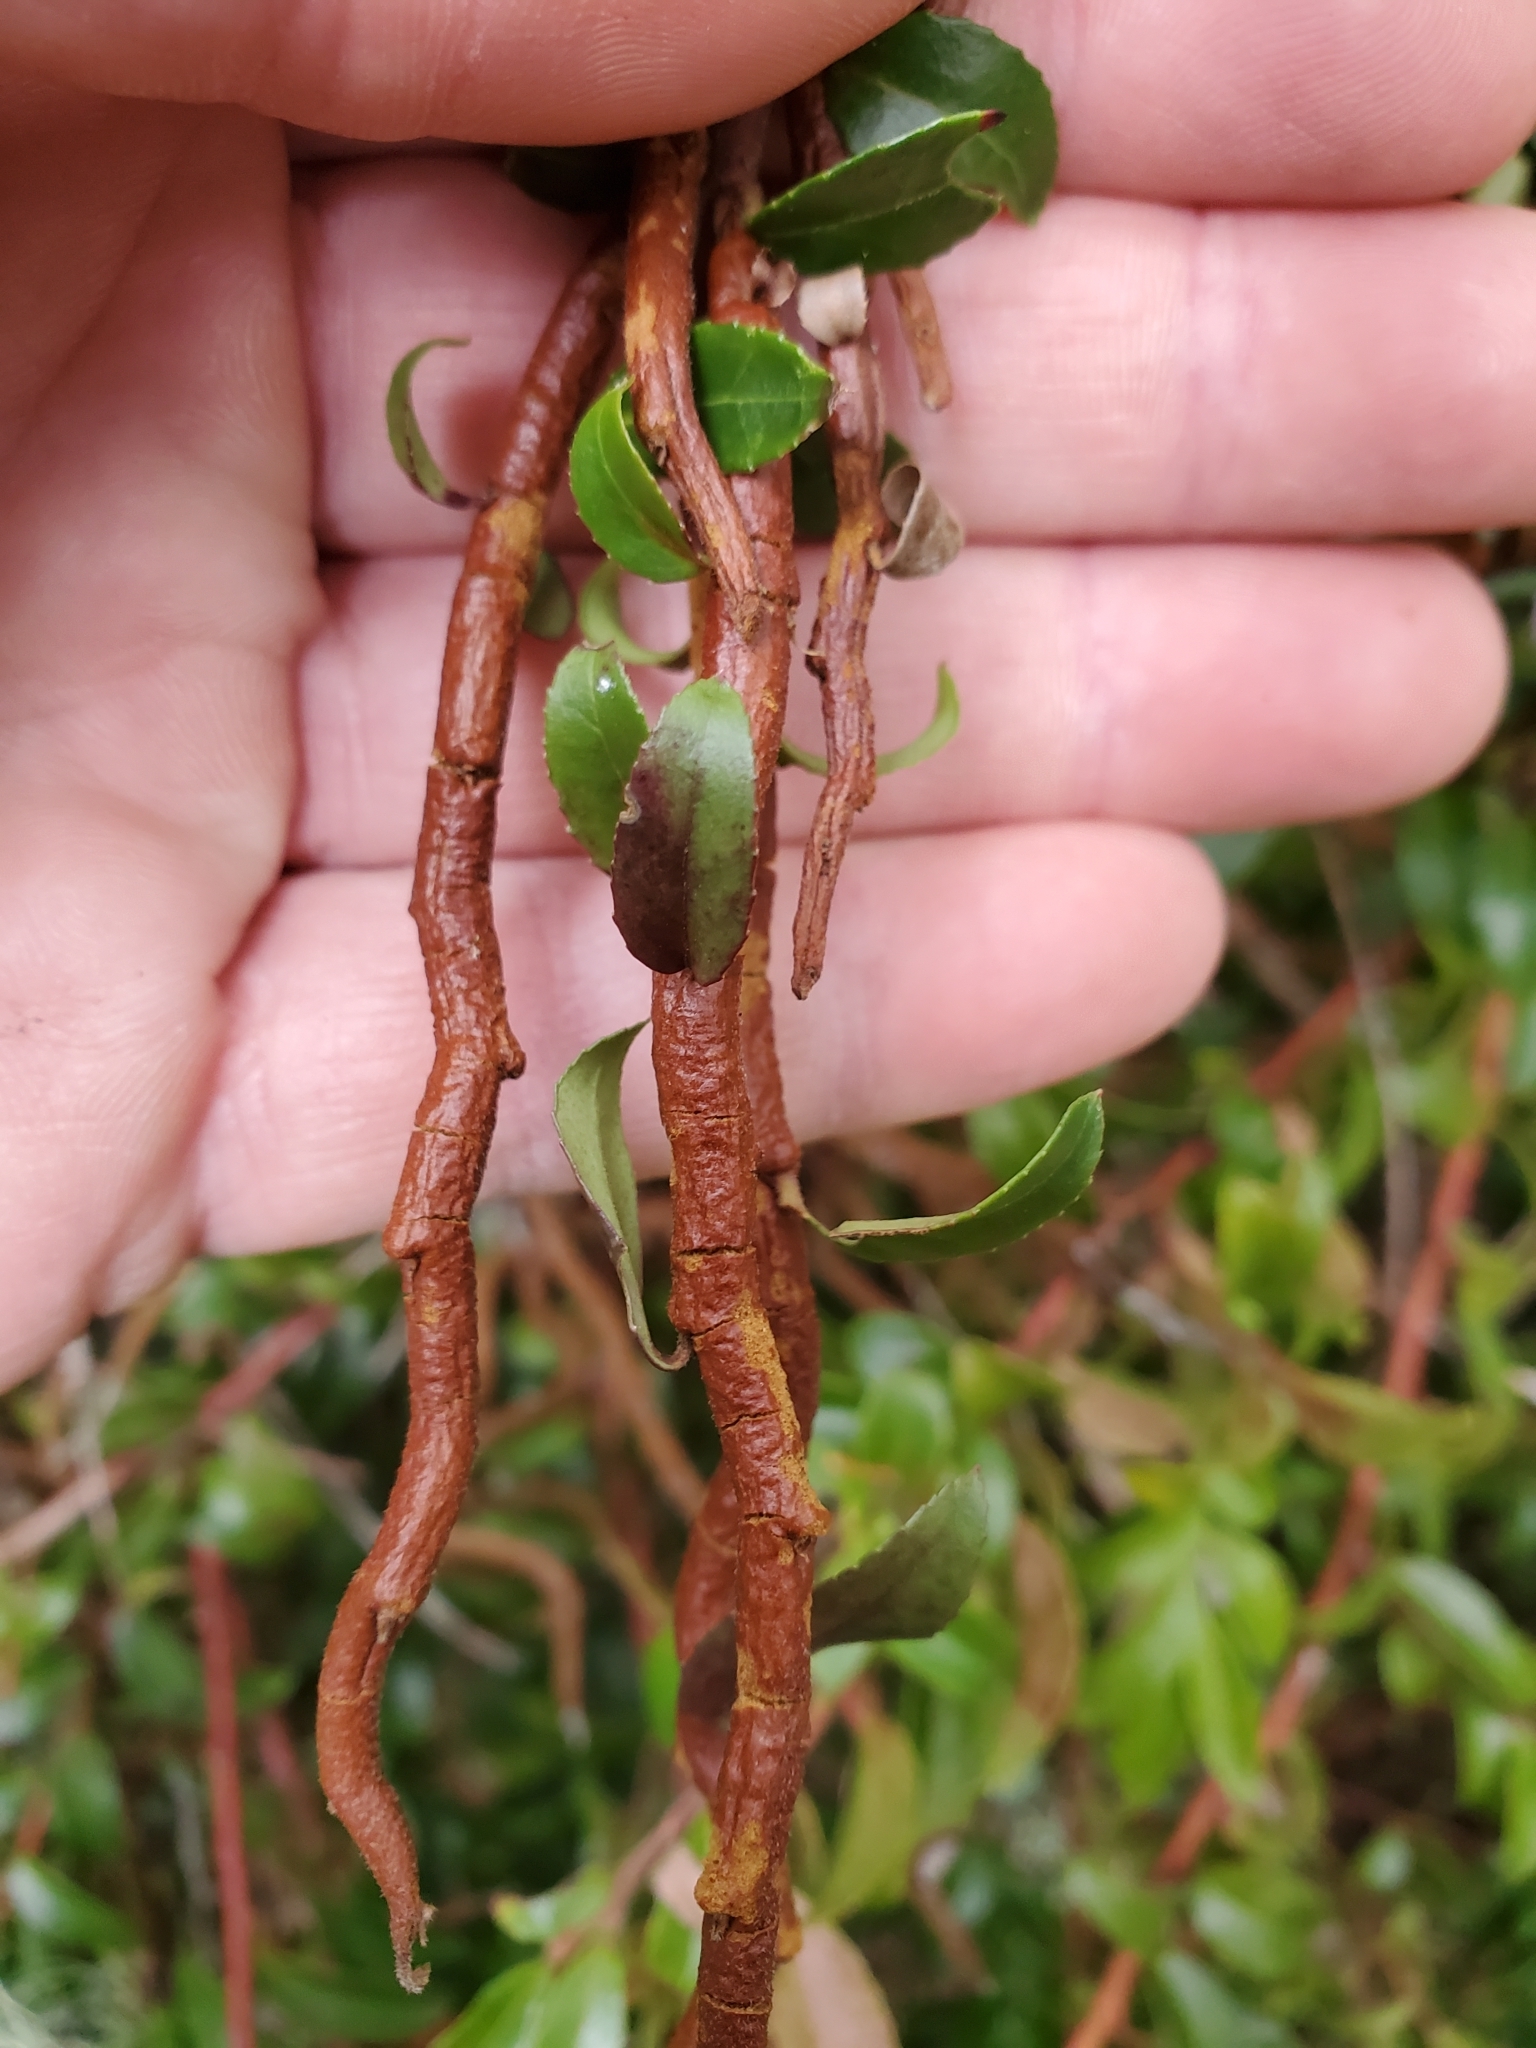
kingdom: Fungi
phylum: Basidiomycota
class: Pucciniomycetes
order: Pucciniales
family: Pucciniastraceae
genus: Calyptospora
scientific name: Calyptospora
